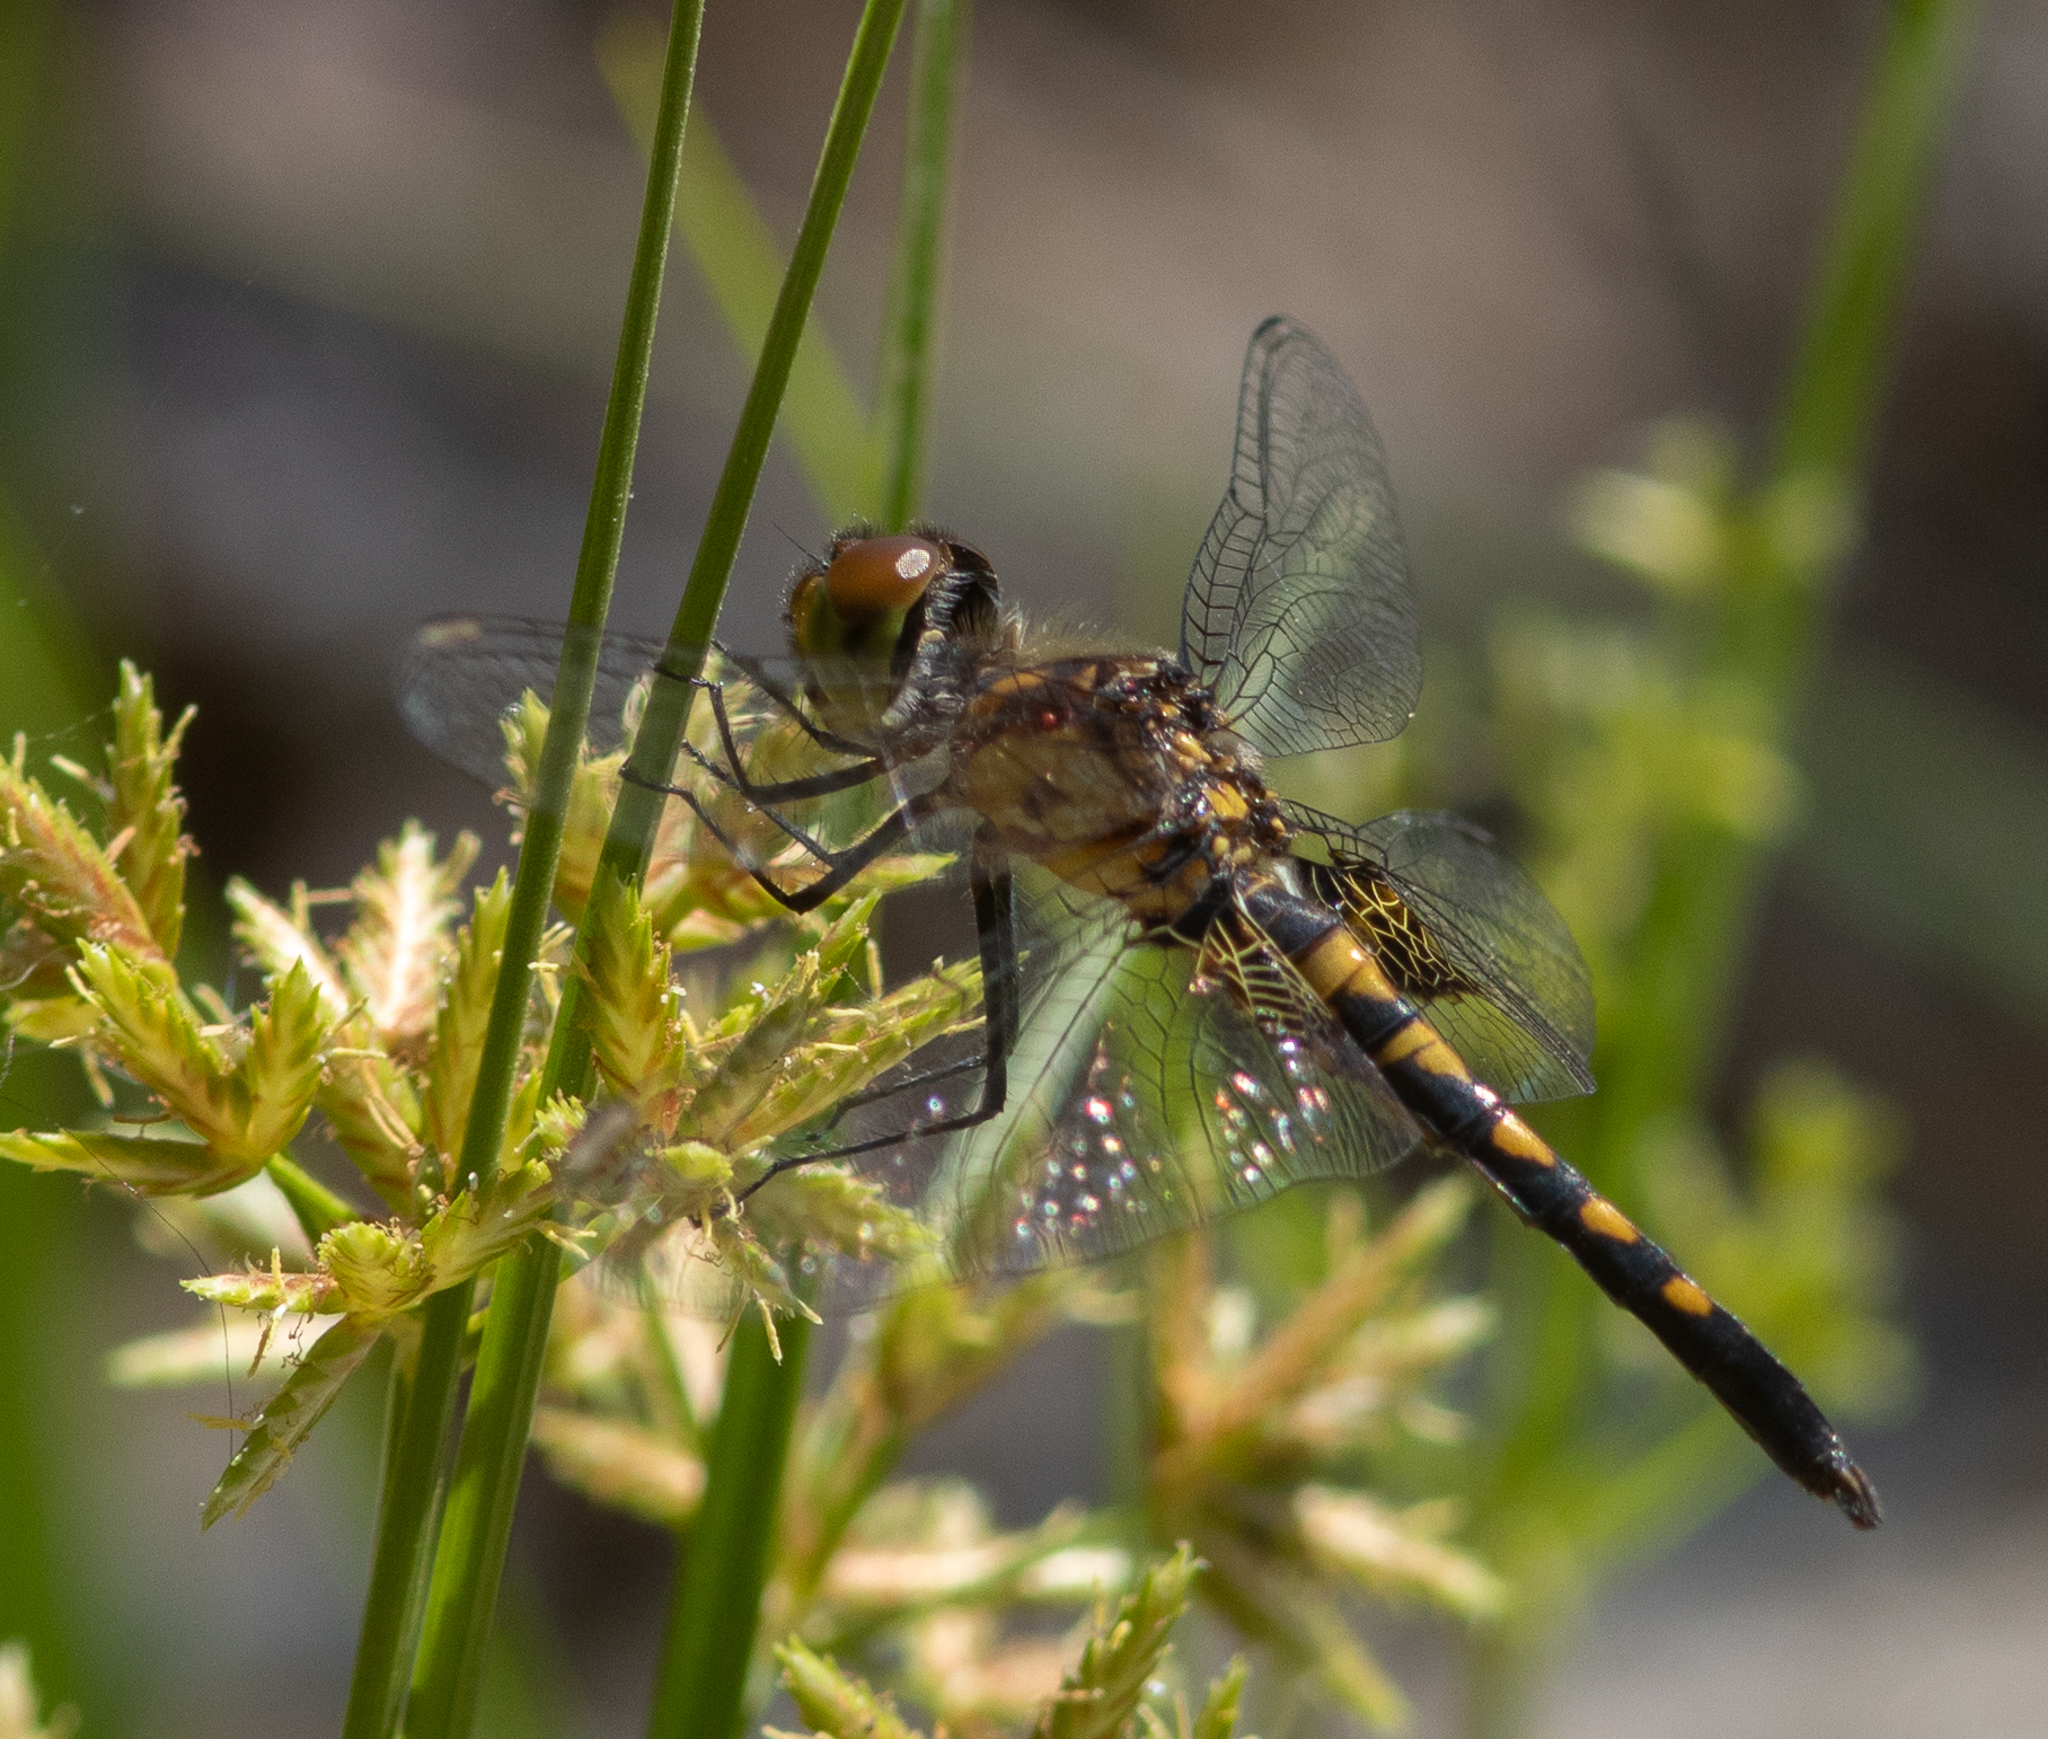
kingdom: Animalia
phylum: Arthropoda
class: Insecta
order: Odonata
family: Libellulidae
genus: Celithemis
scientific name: Celithemis martha
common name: Martha's pennant
